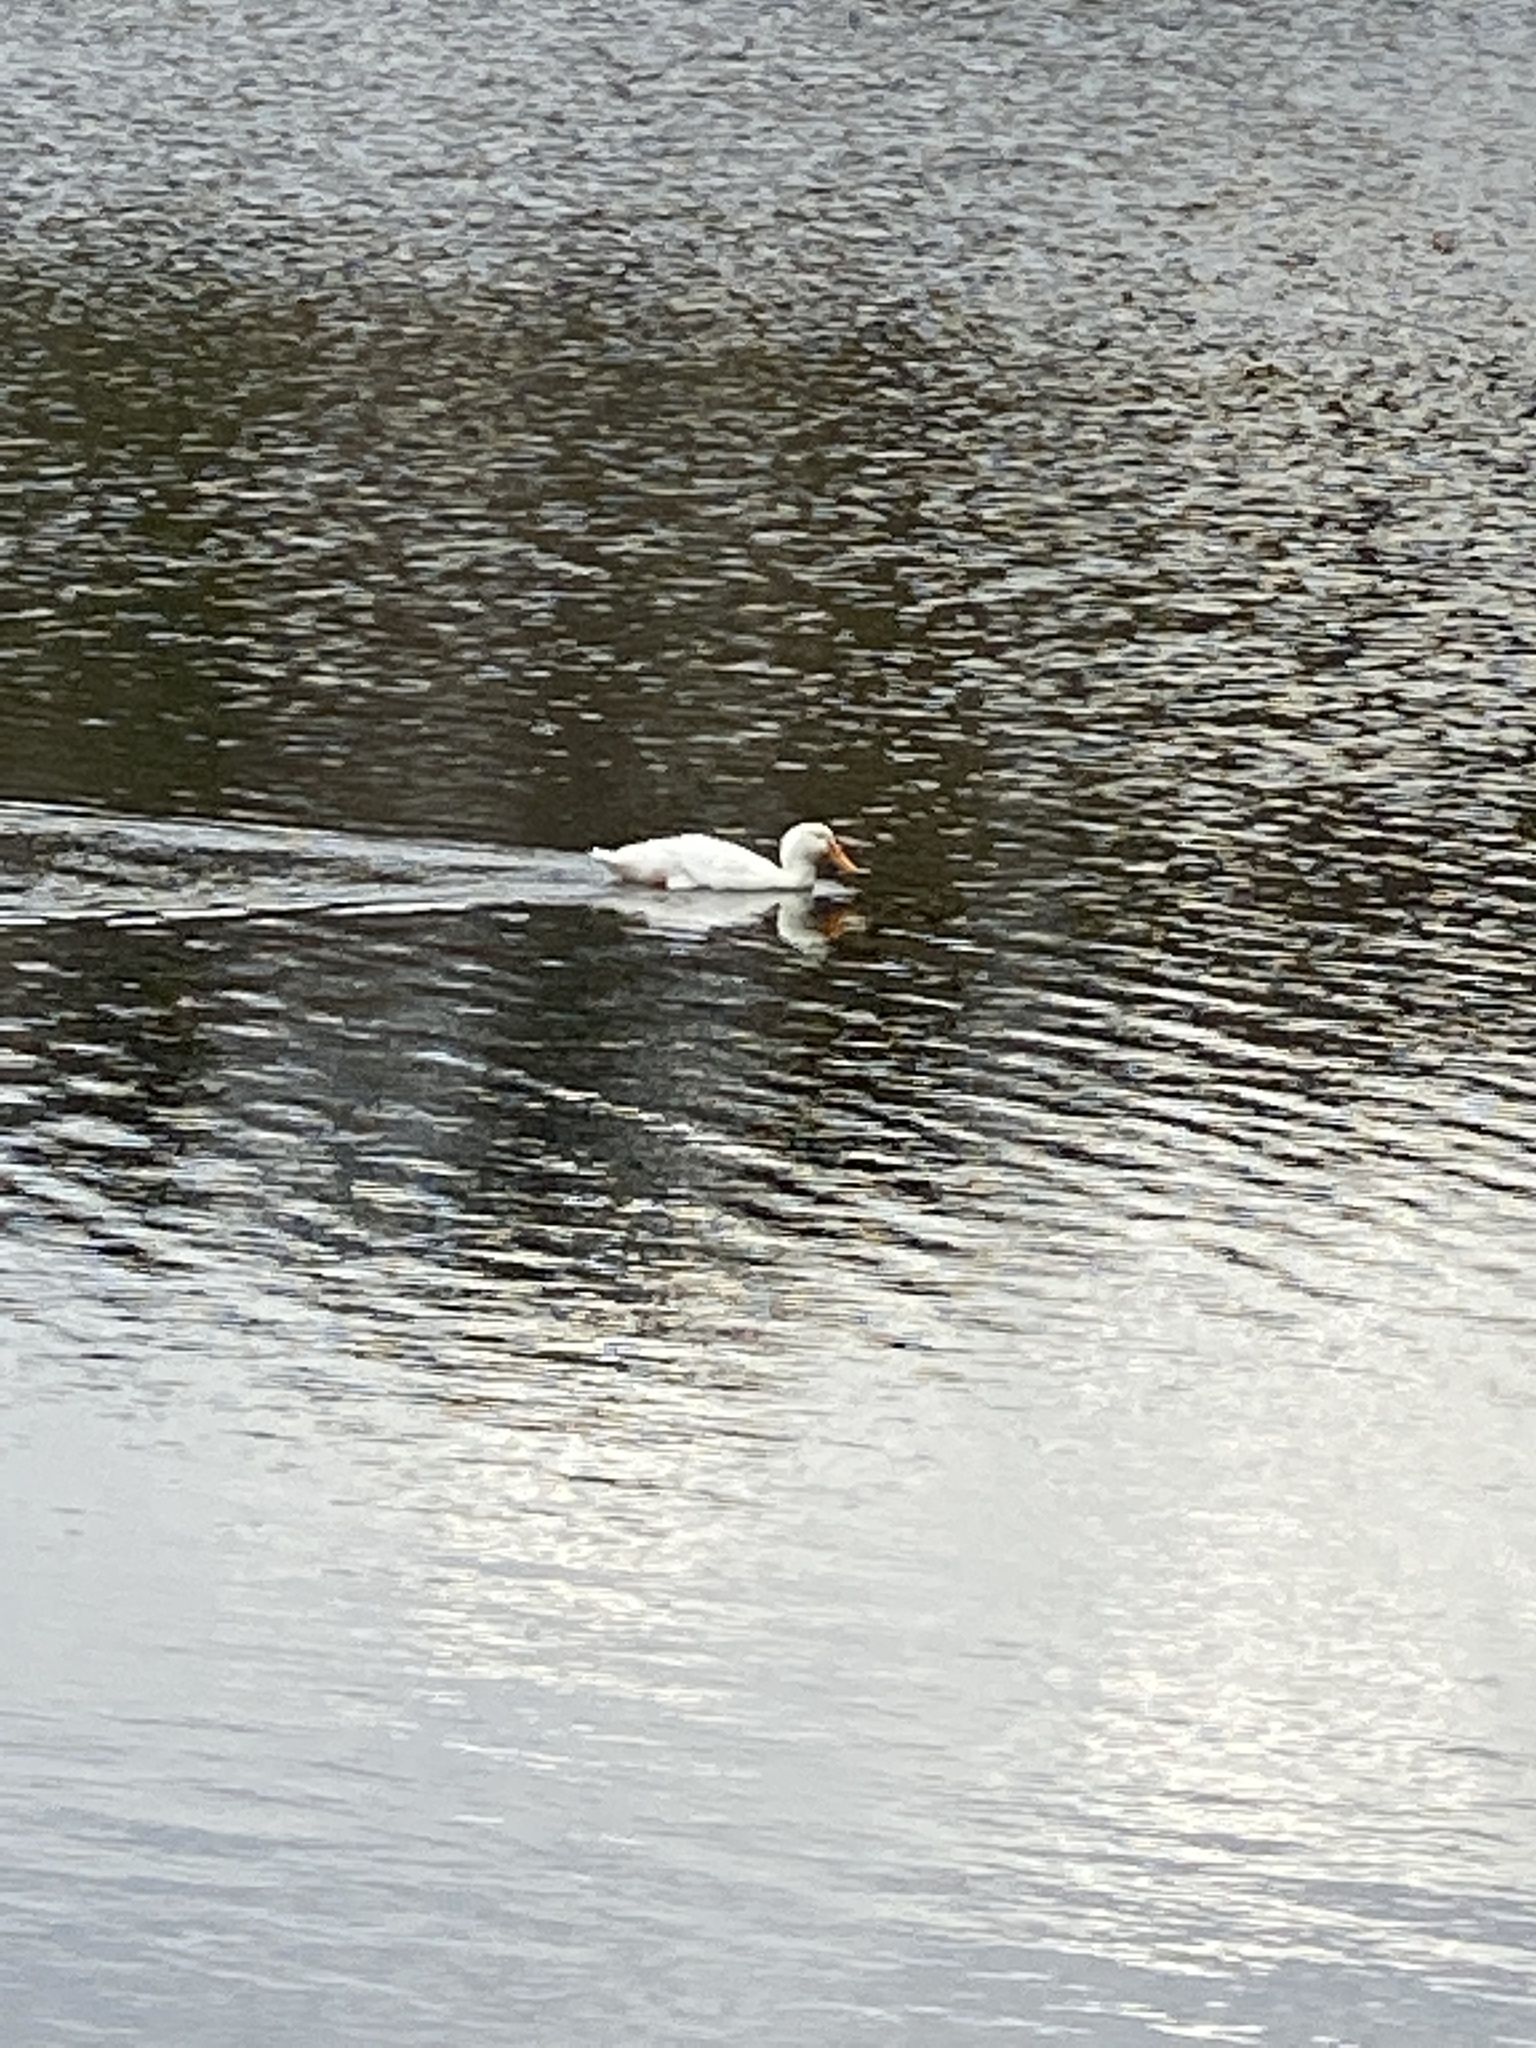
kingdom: Animalia
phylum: Chordata
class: Aves
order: Anseriformes
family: Anatidae
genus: Anas
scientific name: Anas platyrhynchos
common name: Mallard
